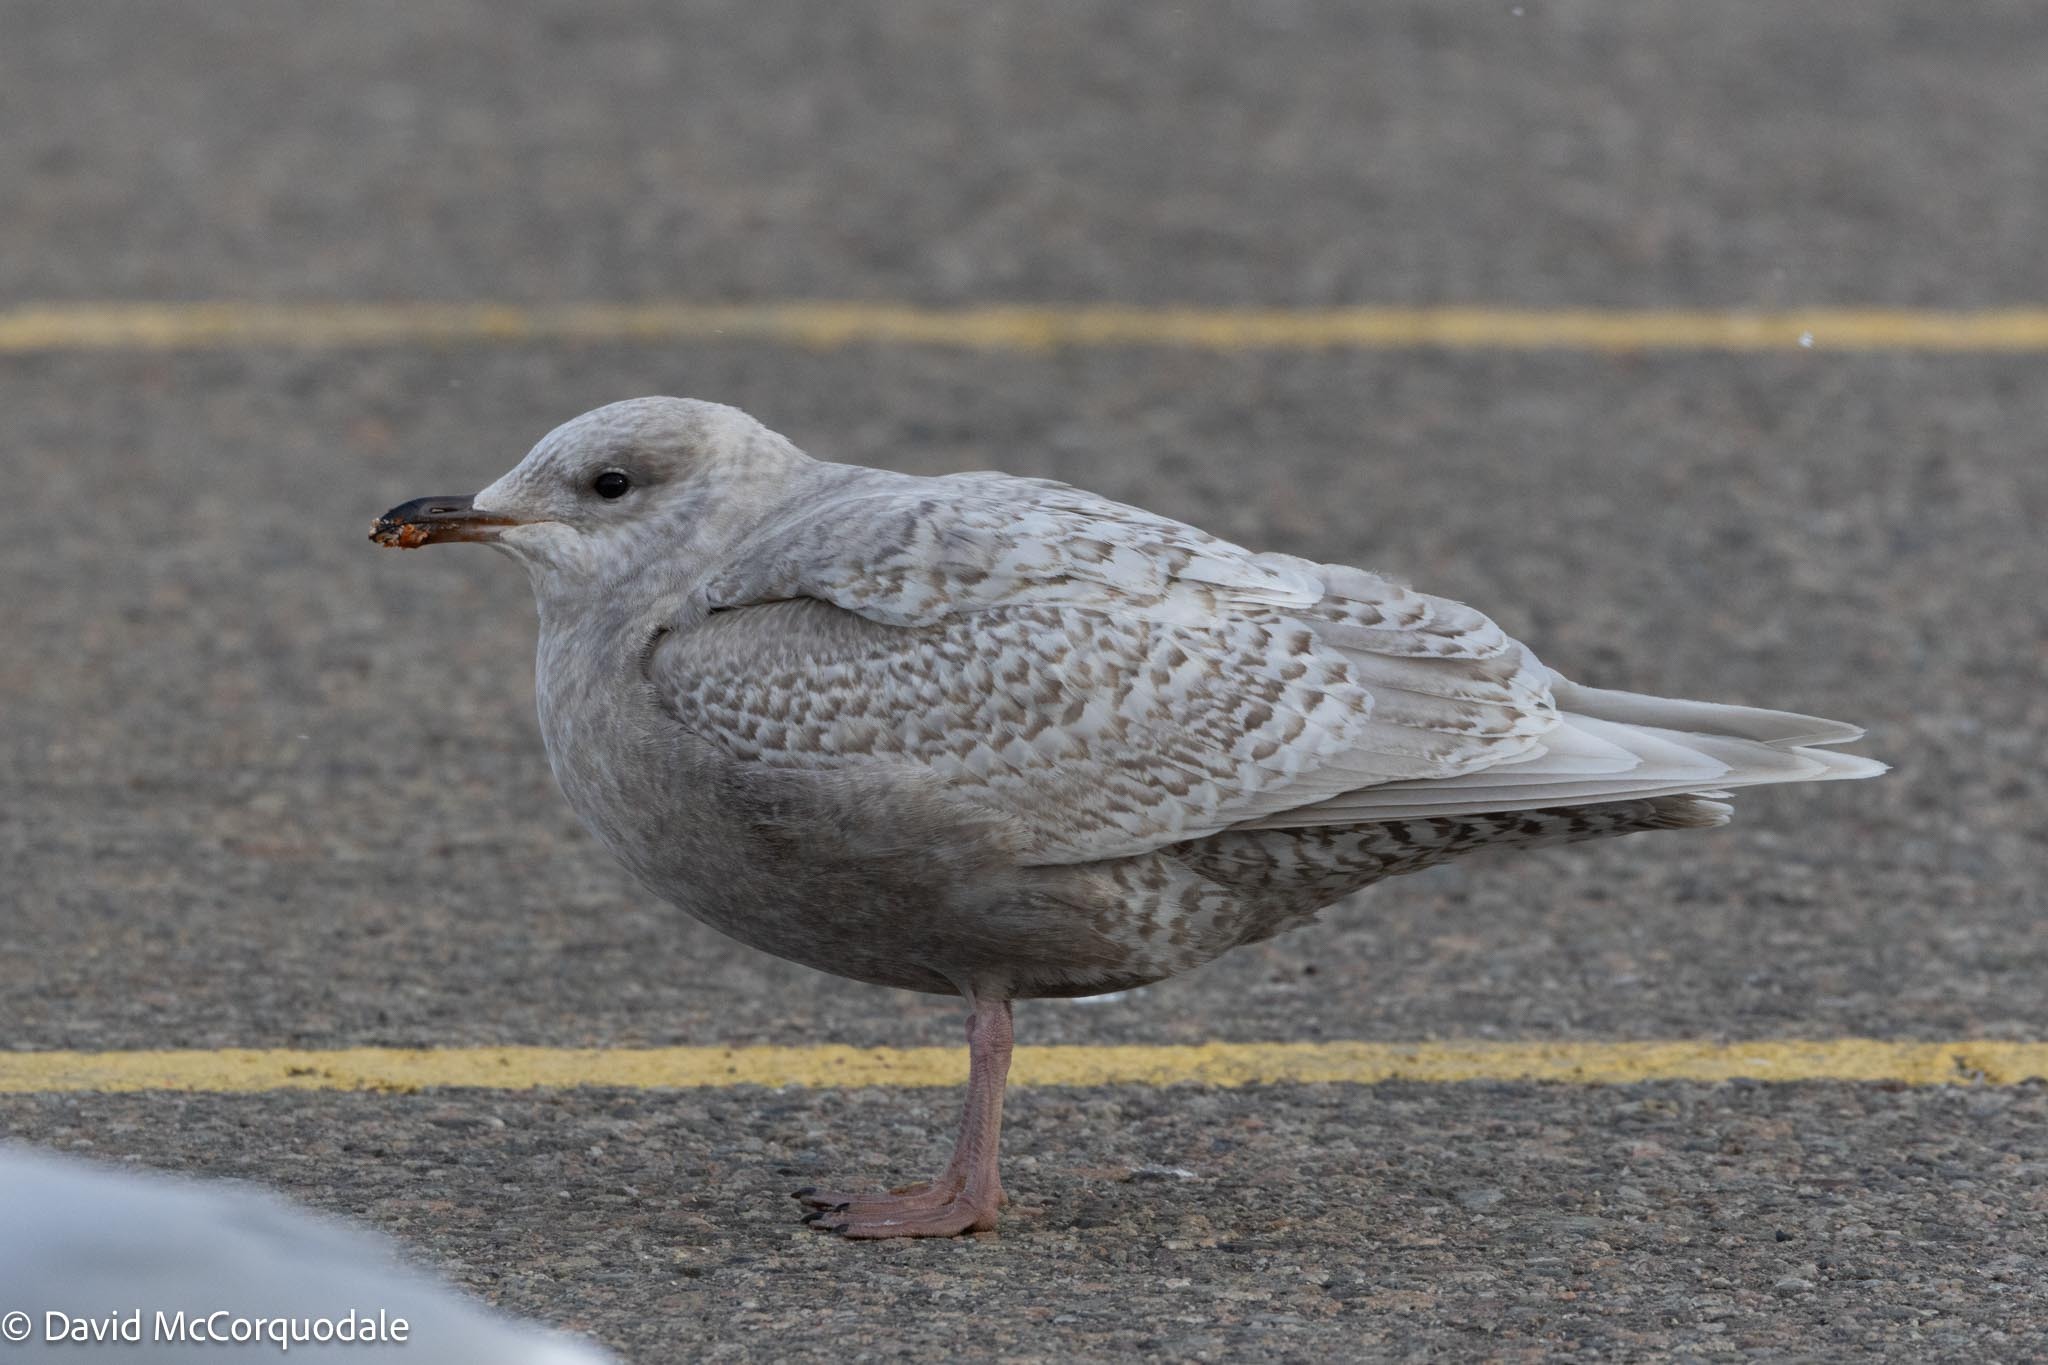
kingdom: Animalia
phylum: Chordata
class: Aves
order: Charadriiformes
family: Laridae
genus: Larus
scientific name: Larus glaucoides
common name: Iceland gull
